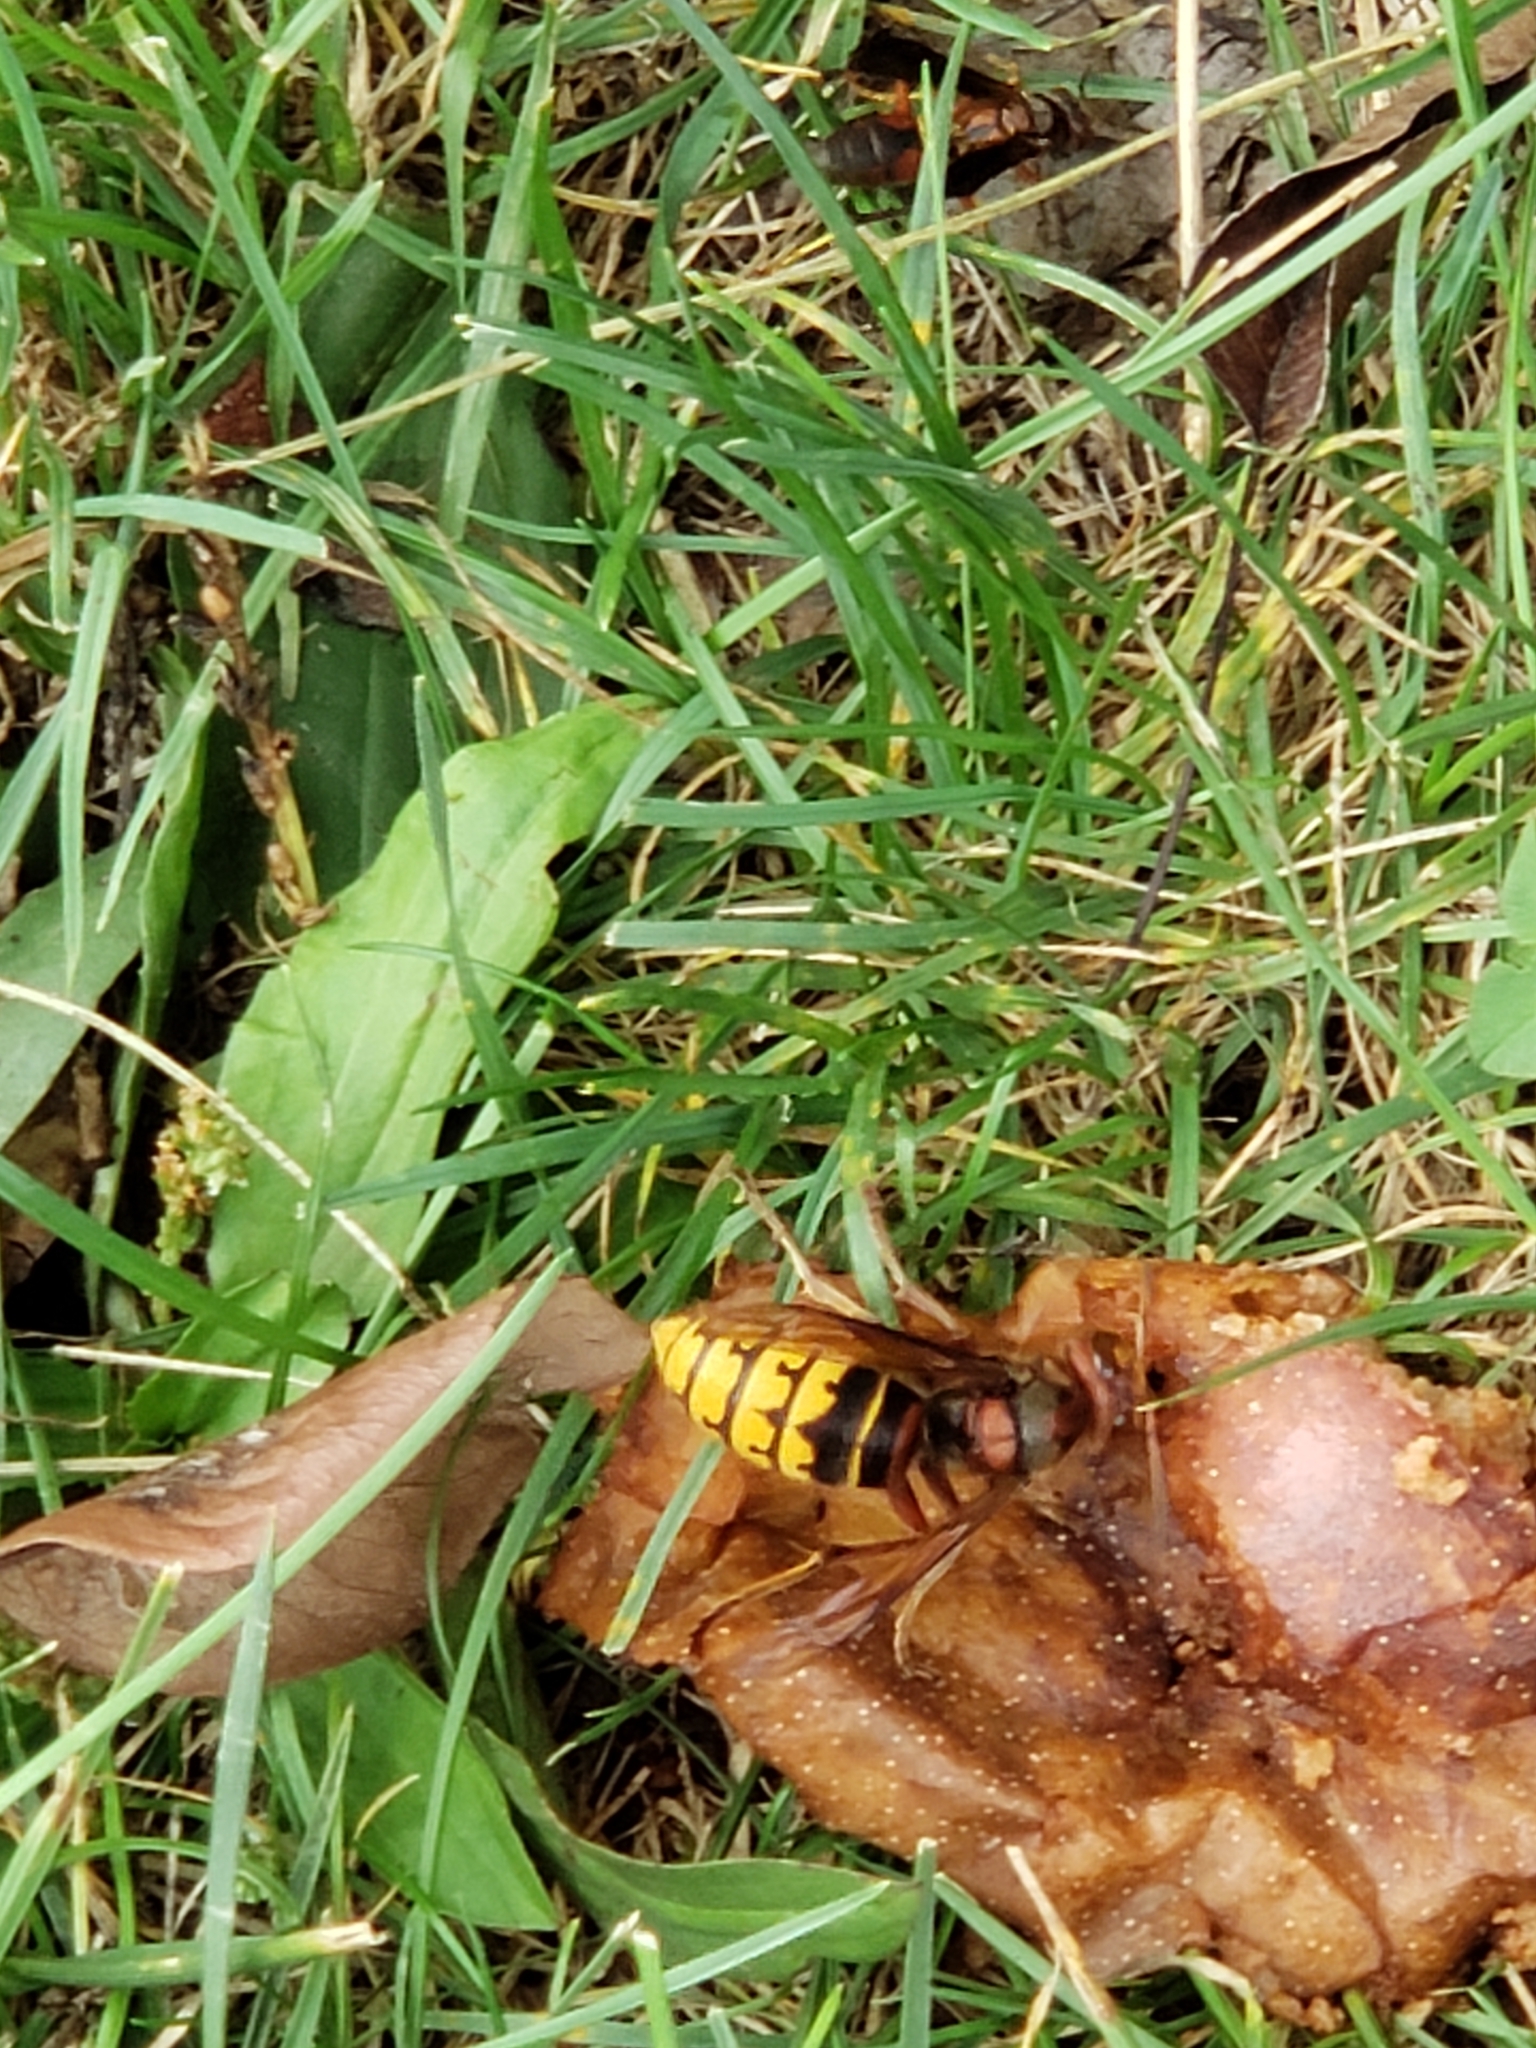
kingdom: Animalia
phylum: Arthropoda
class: Insecta
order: Hymenoptera
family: Vespidae
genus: Vespa
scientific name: Vespa crabro
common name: Hornet
